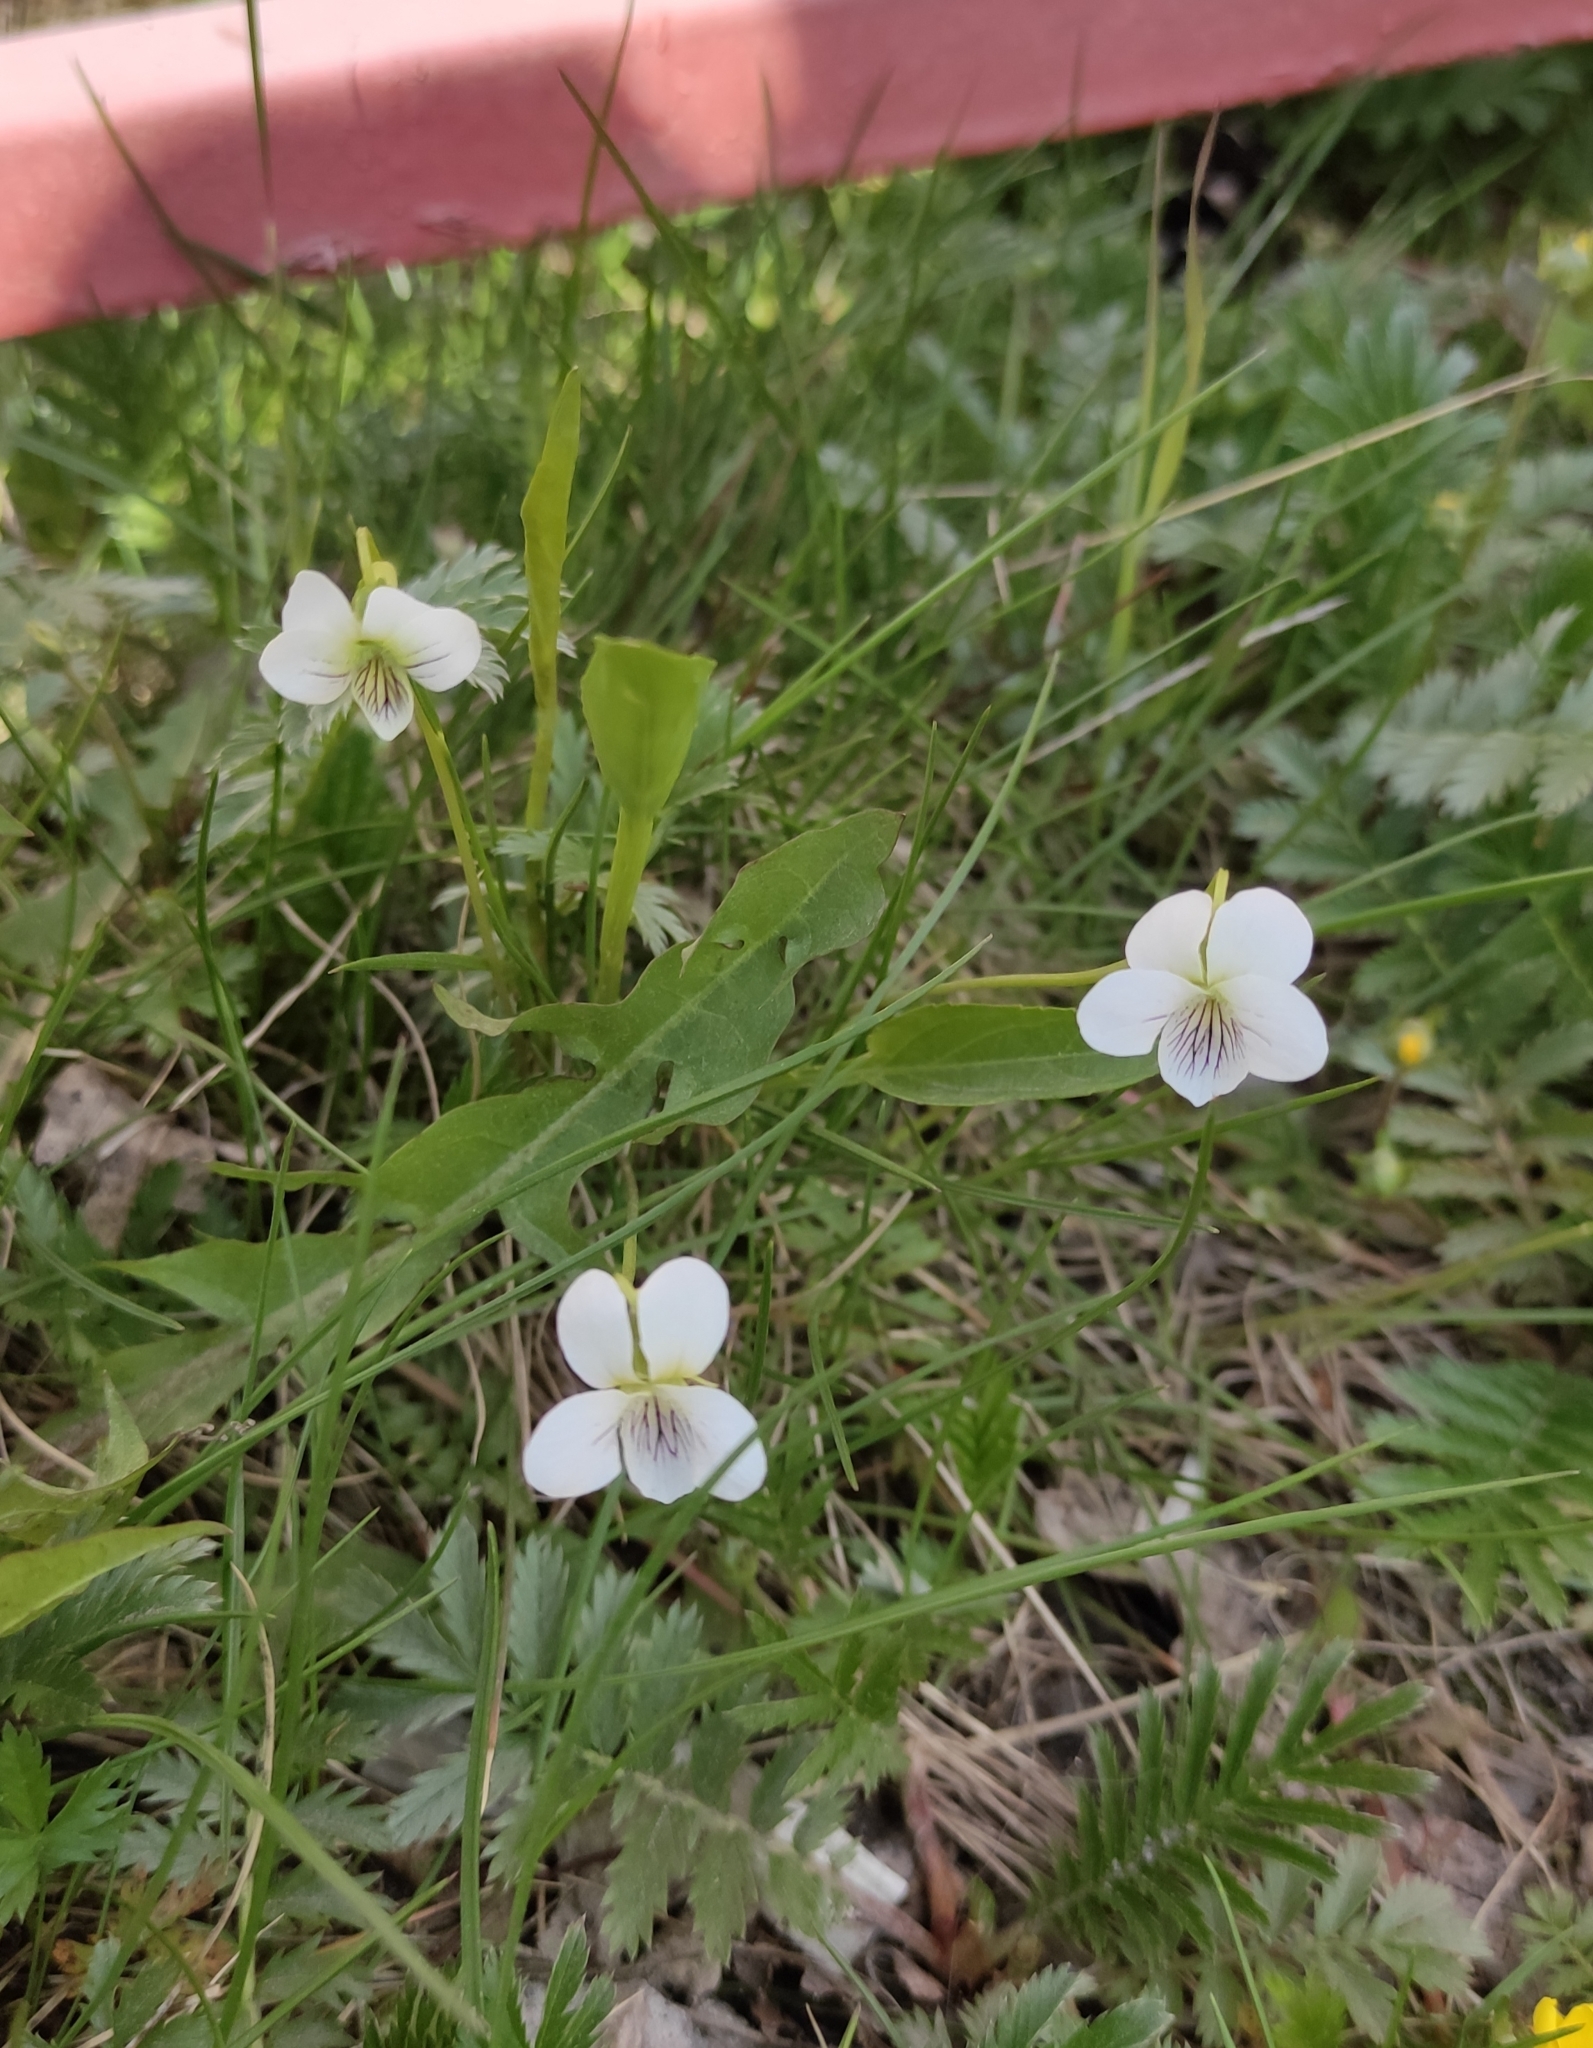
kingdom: Plantae
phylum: Tracheophyta
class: Magnoliopsida
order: Malpighiales
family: Violaceae
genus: Viola
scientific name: Viola patrinii
